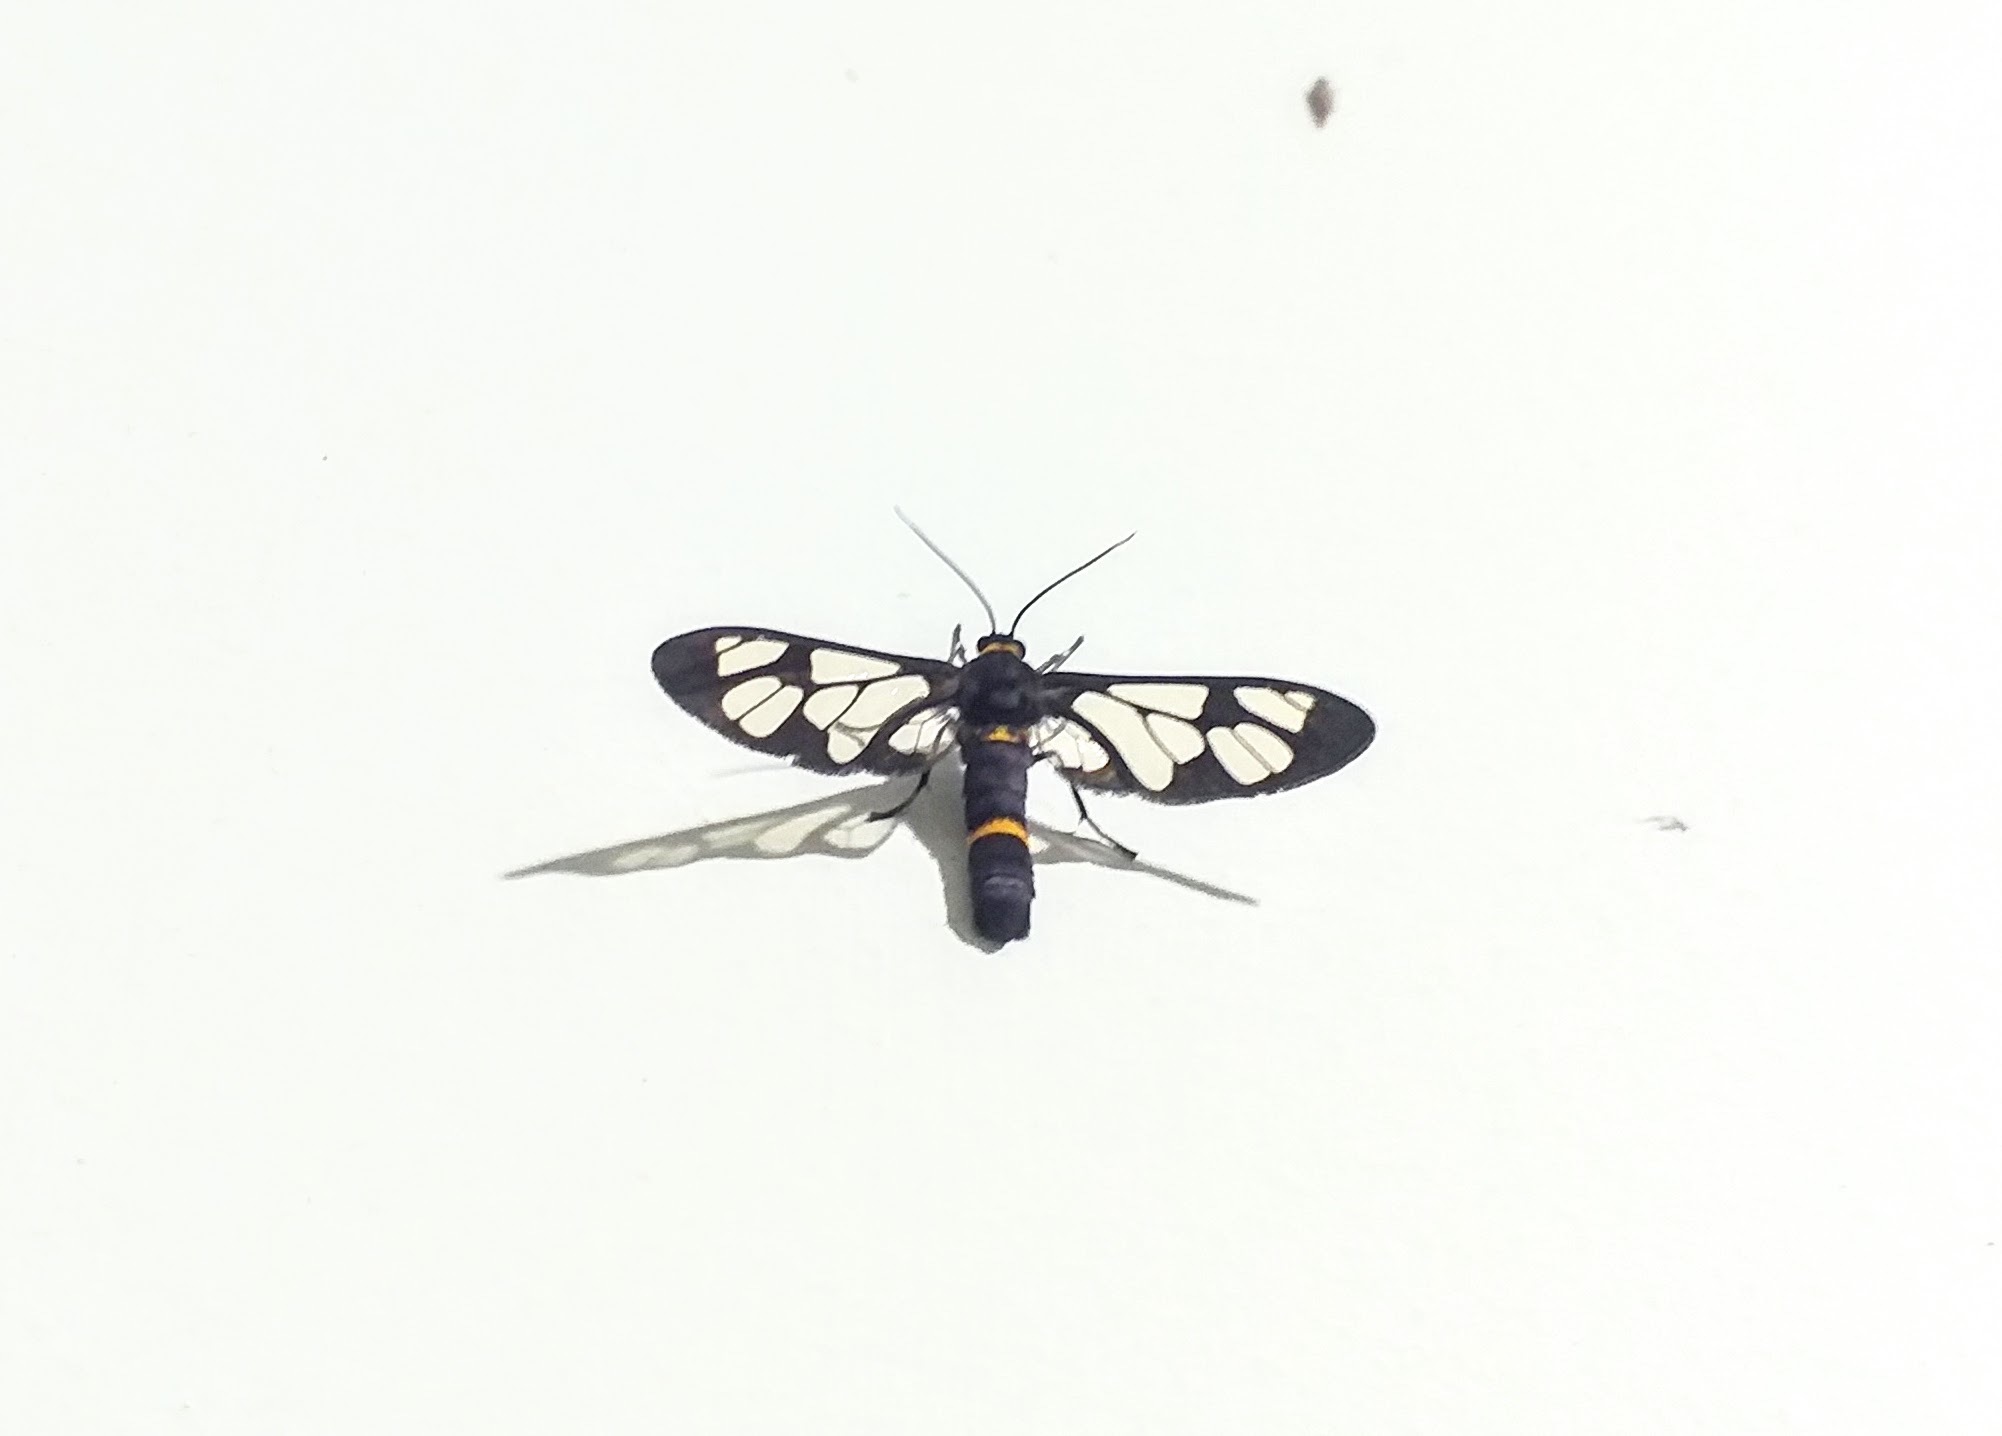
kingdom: Animalia
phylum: Arthropoda
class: Insecta
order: Lepidoptera
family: Erebidae
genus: Syntomoides
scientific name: Syntomoides imaon
